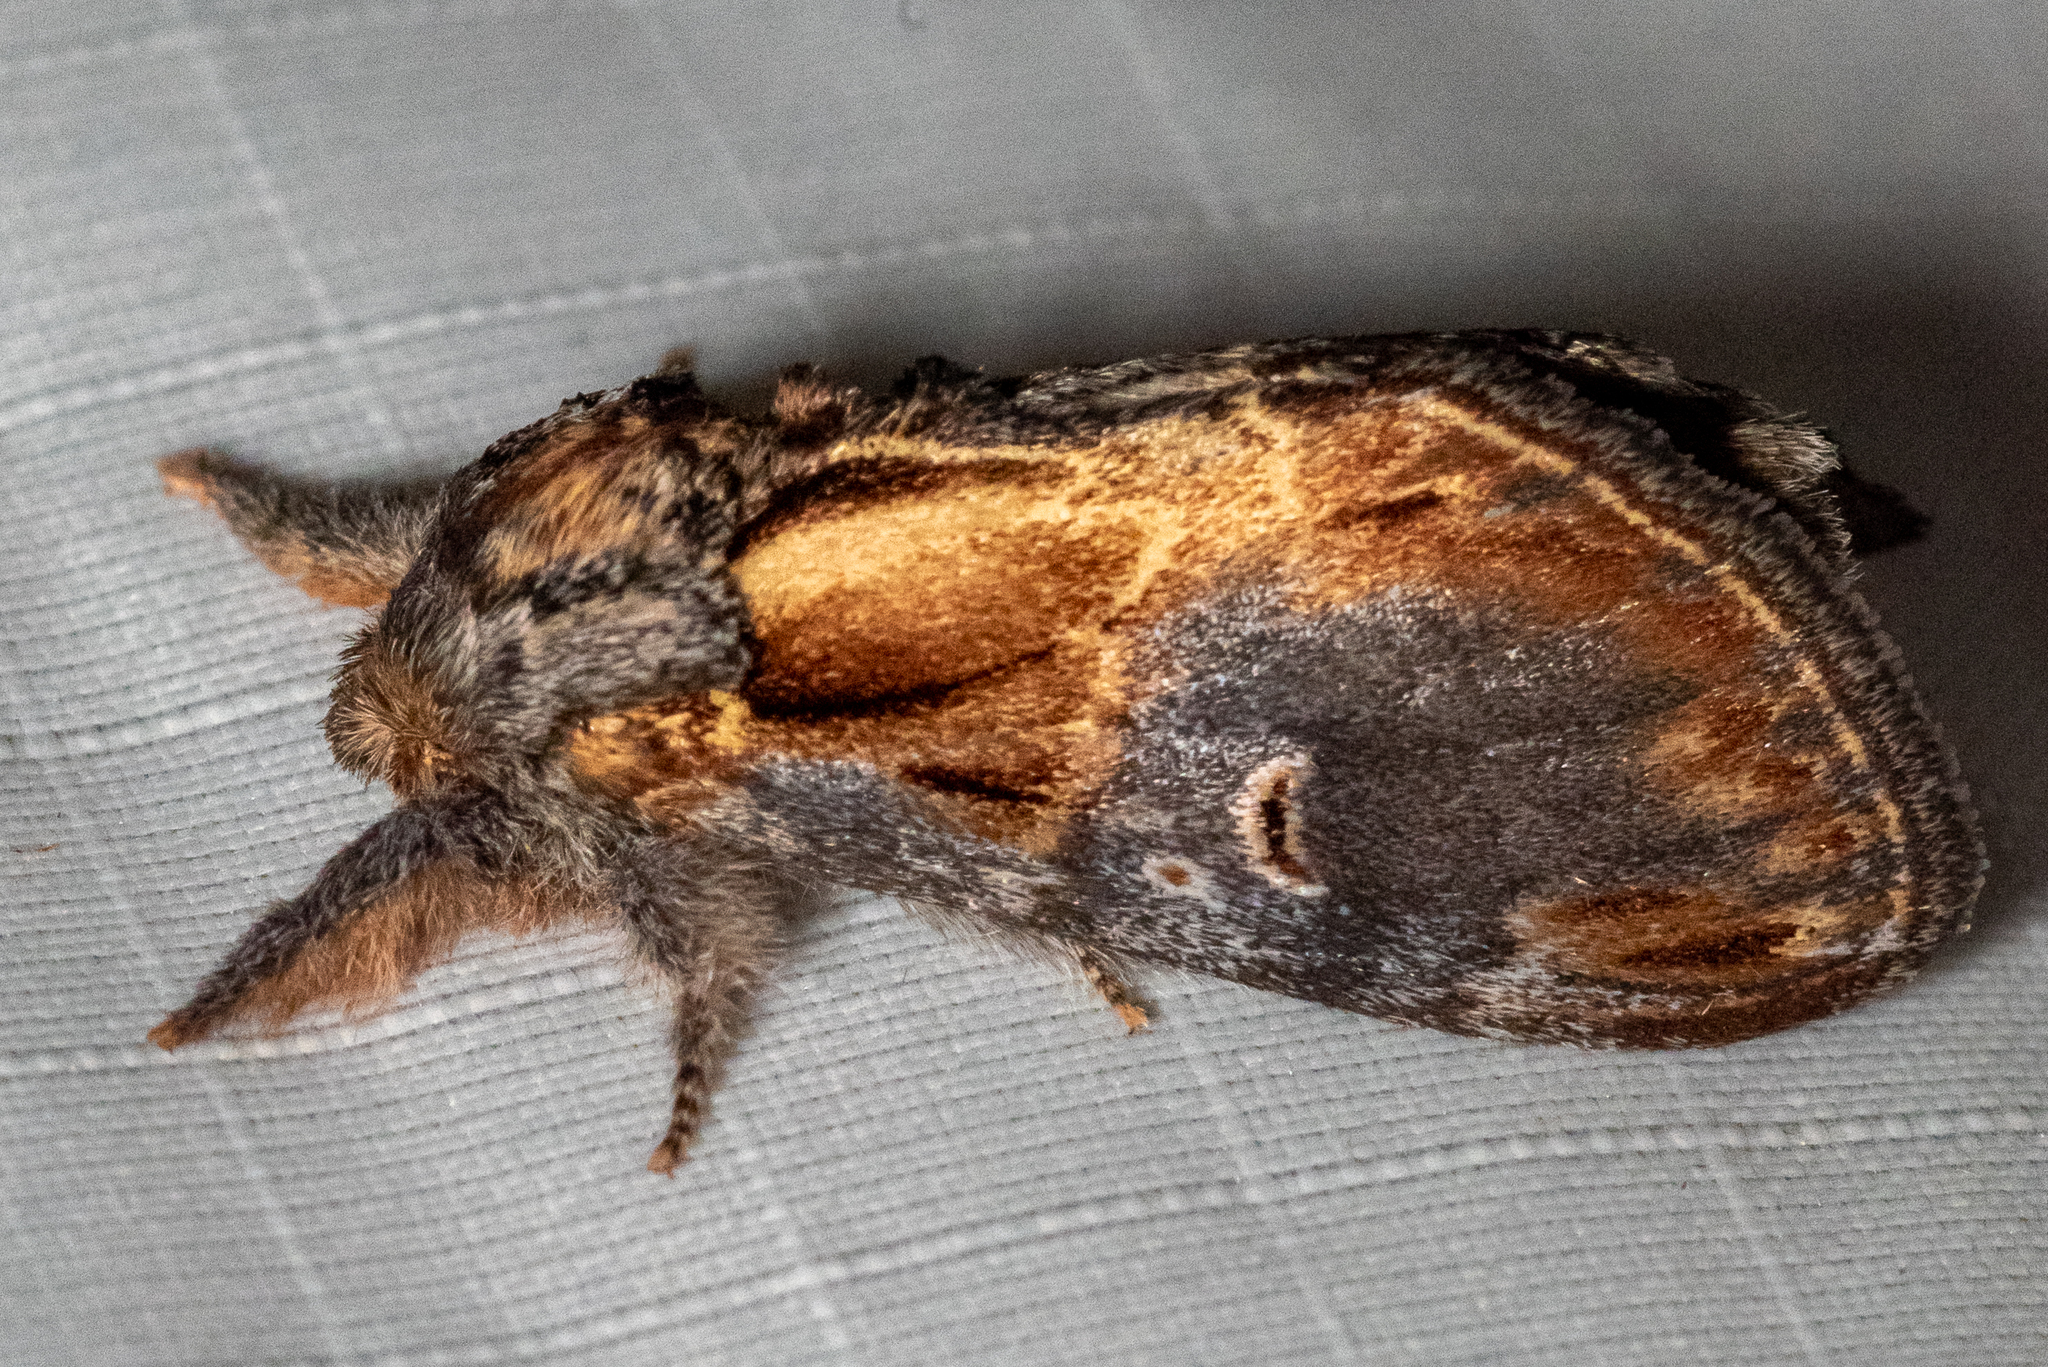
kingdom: Animalia
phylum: Arthropoda
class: Insecta
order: Lepidoptera
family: Notodontidae
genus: Notodonta
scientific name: Notodonta scitipennis
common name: Finned-willow prominent moth
